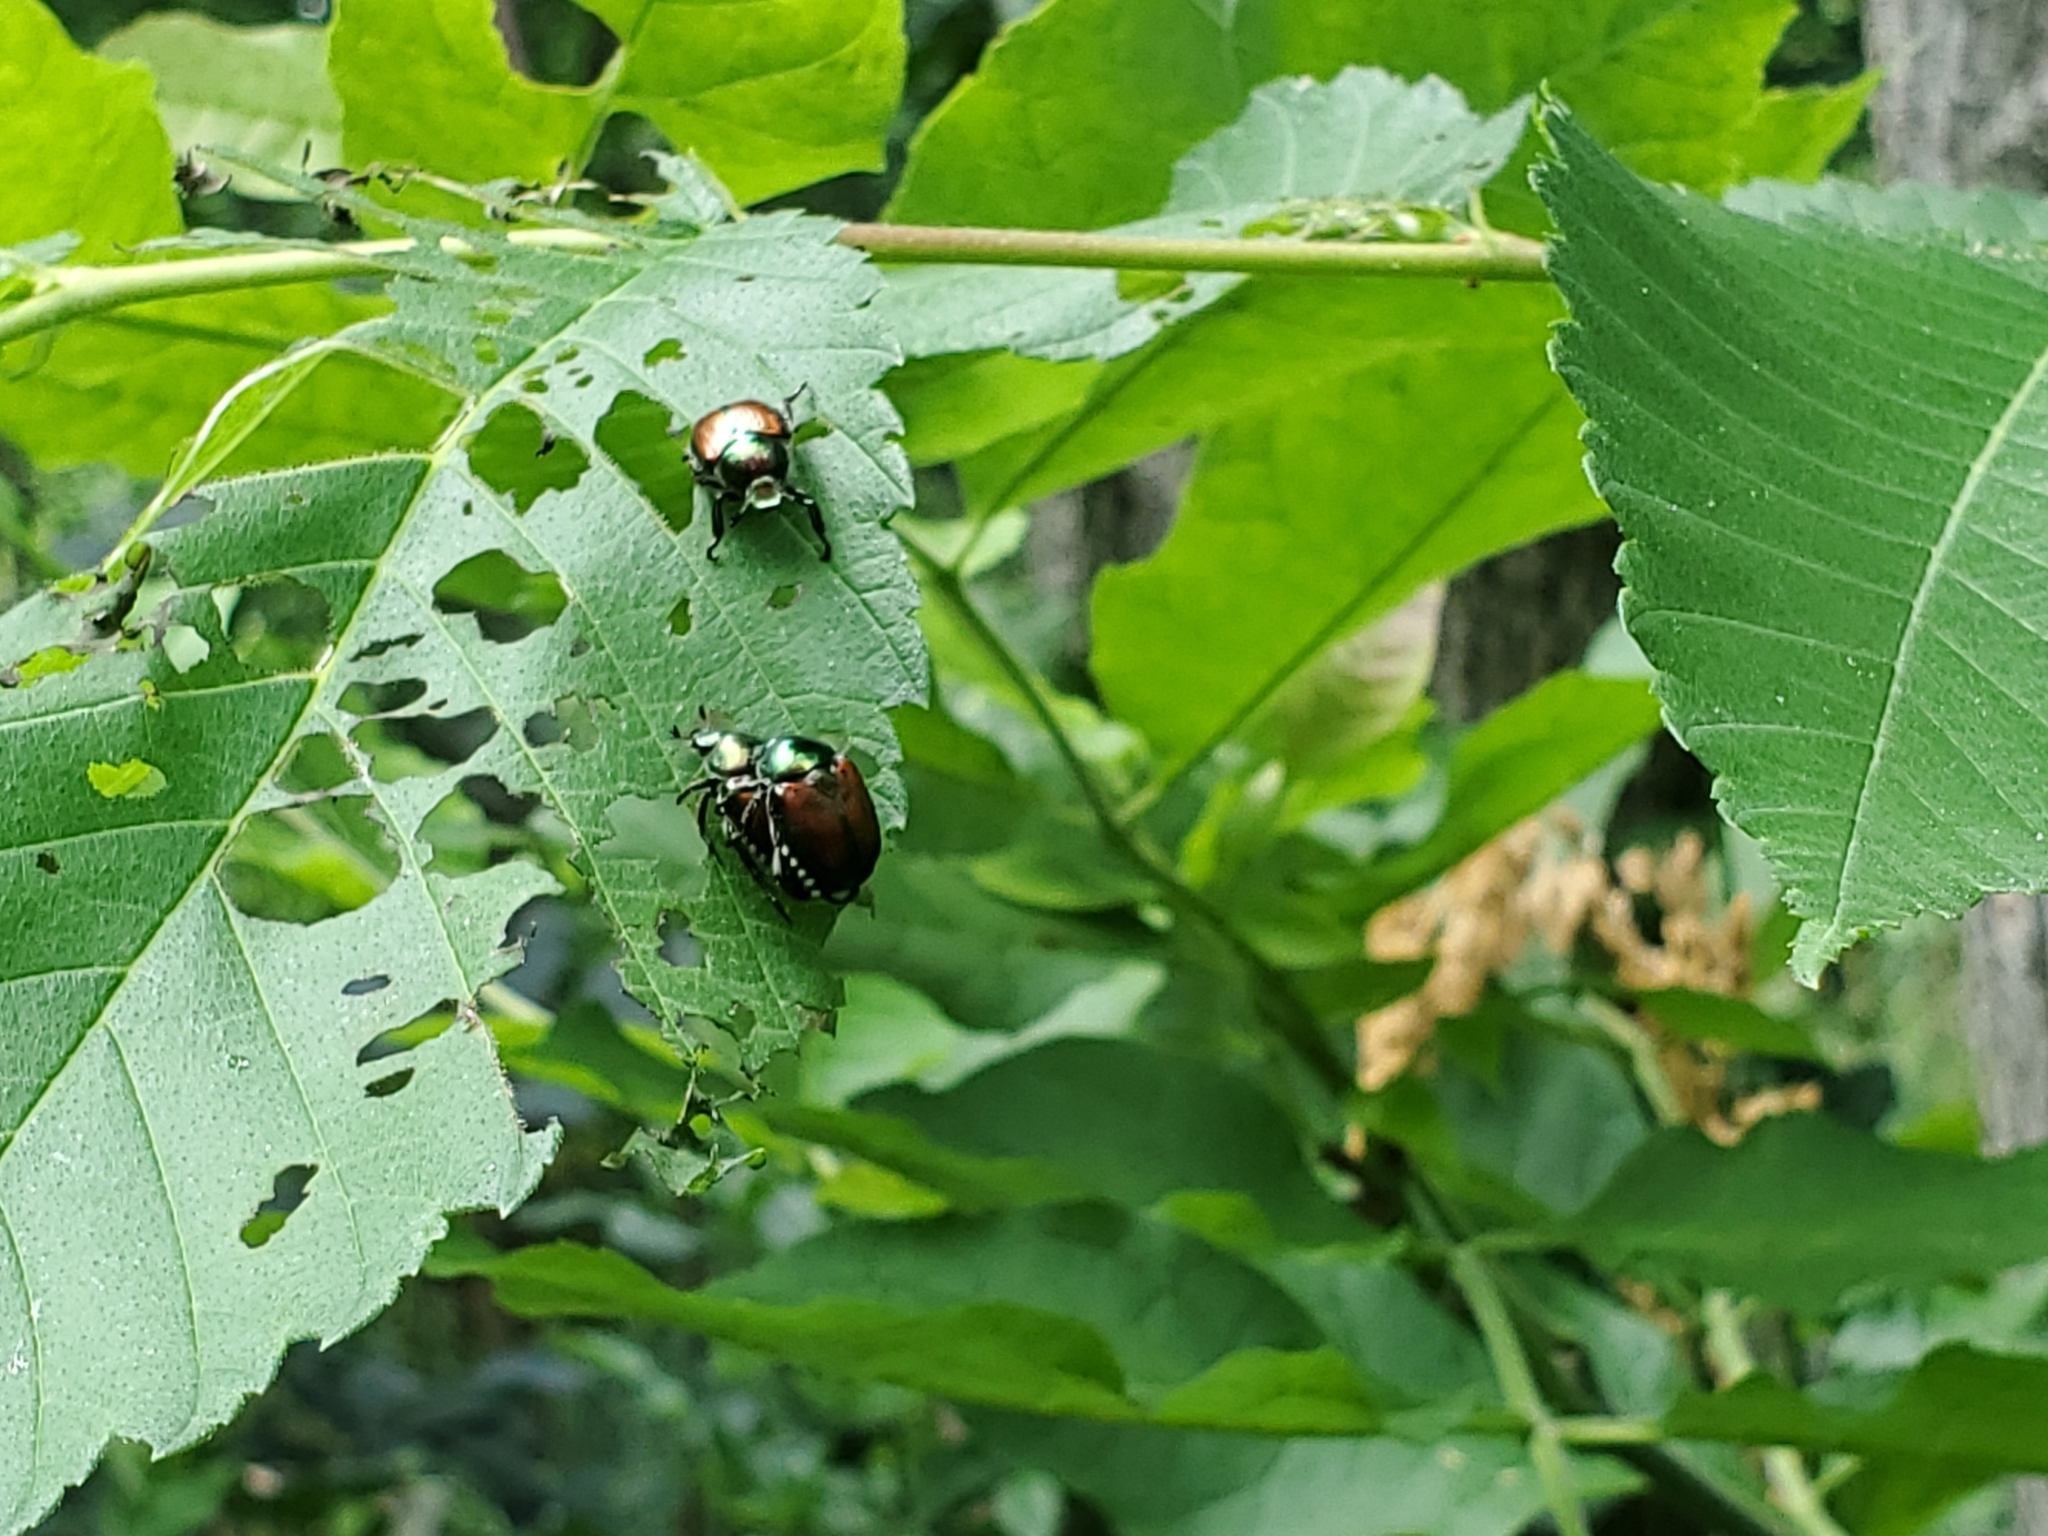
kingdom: Animalia
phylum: Arthropoda
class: Insecta
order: Coleoptera
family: Scarabaeidae
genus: Popillia
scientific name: Popillia japonica
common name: Japanese beetle
